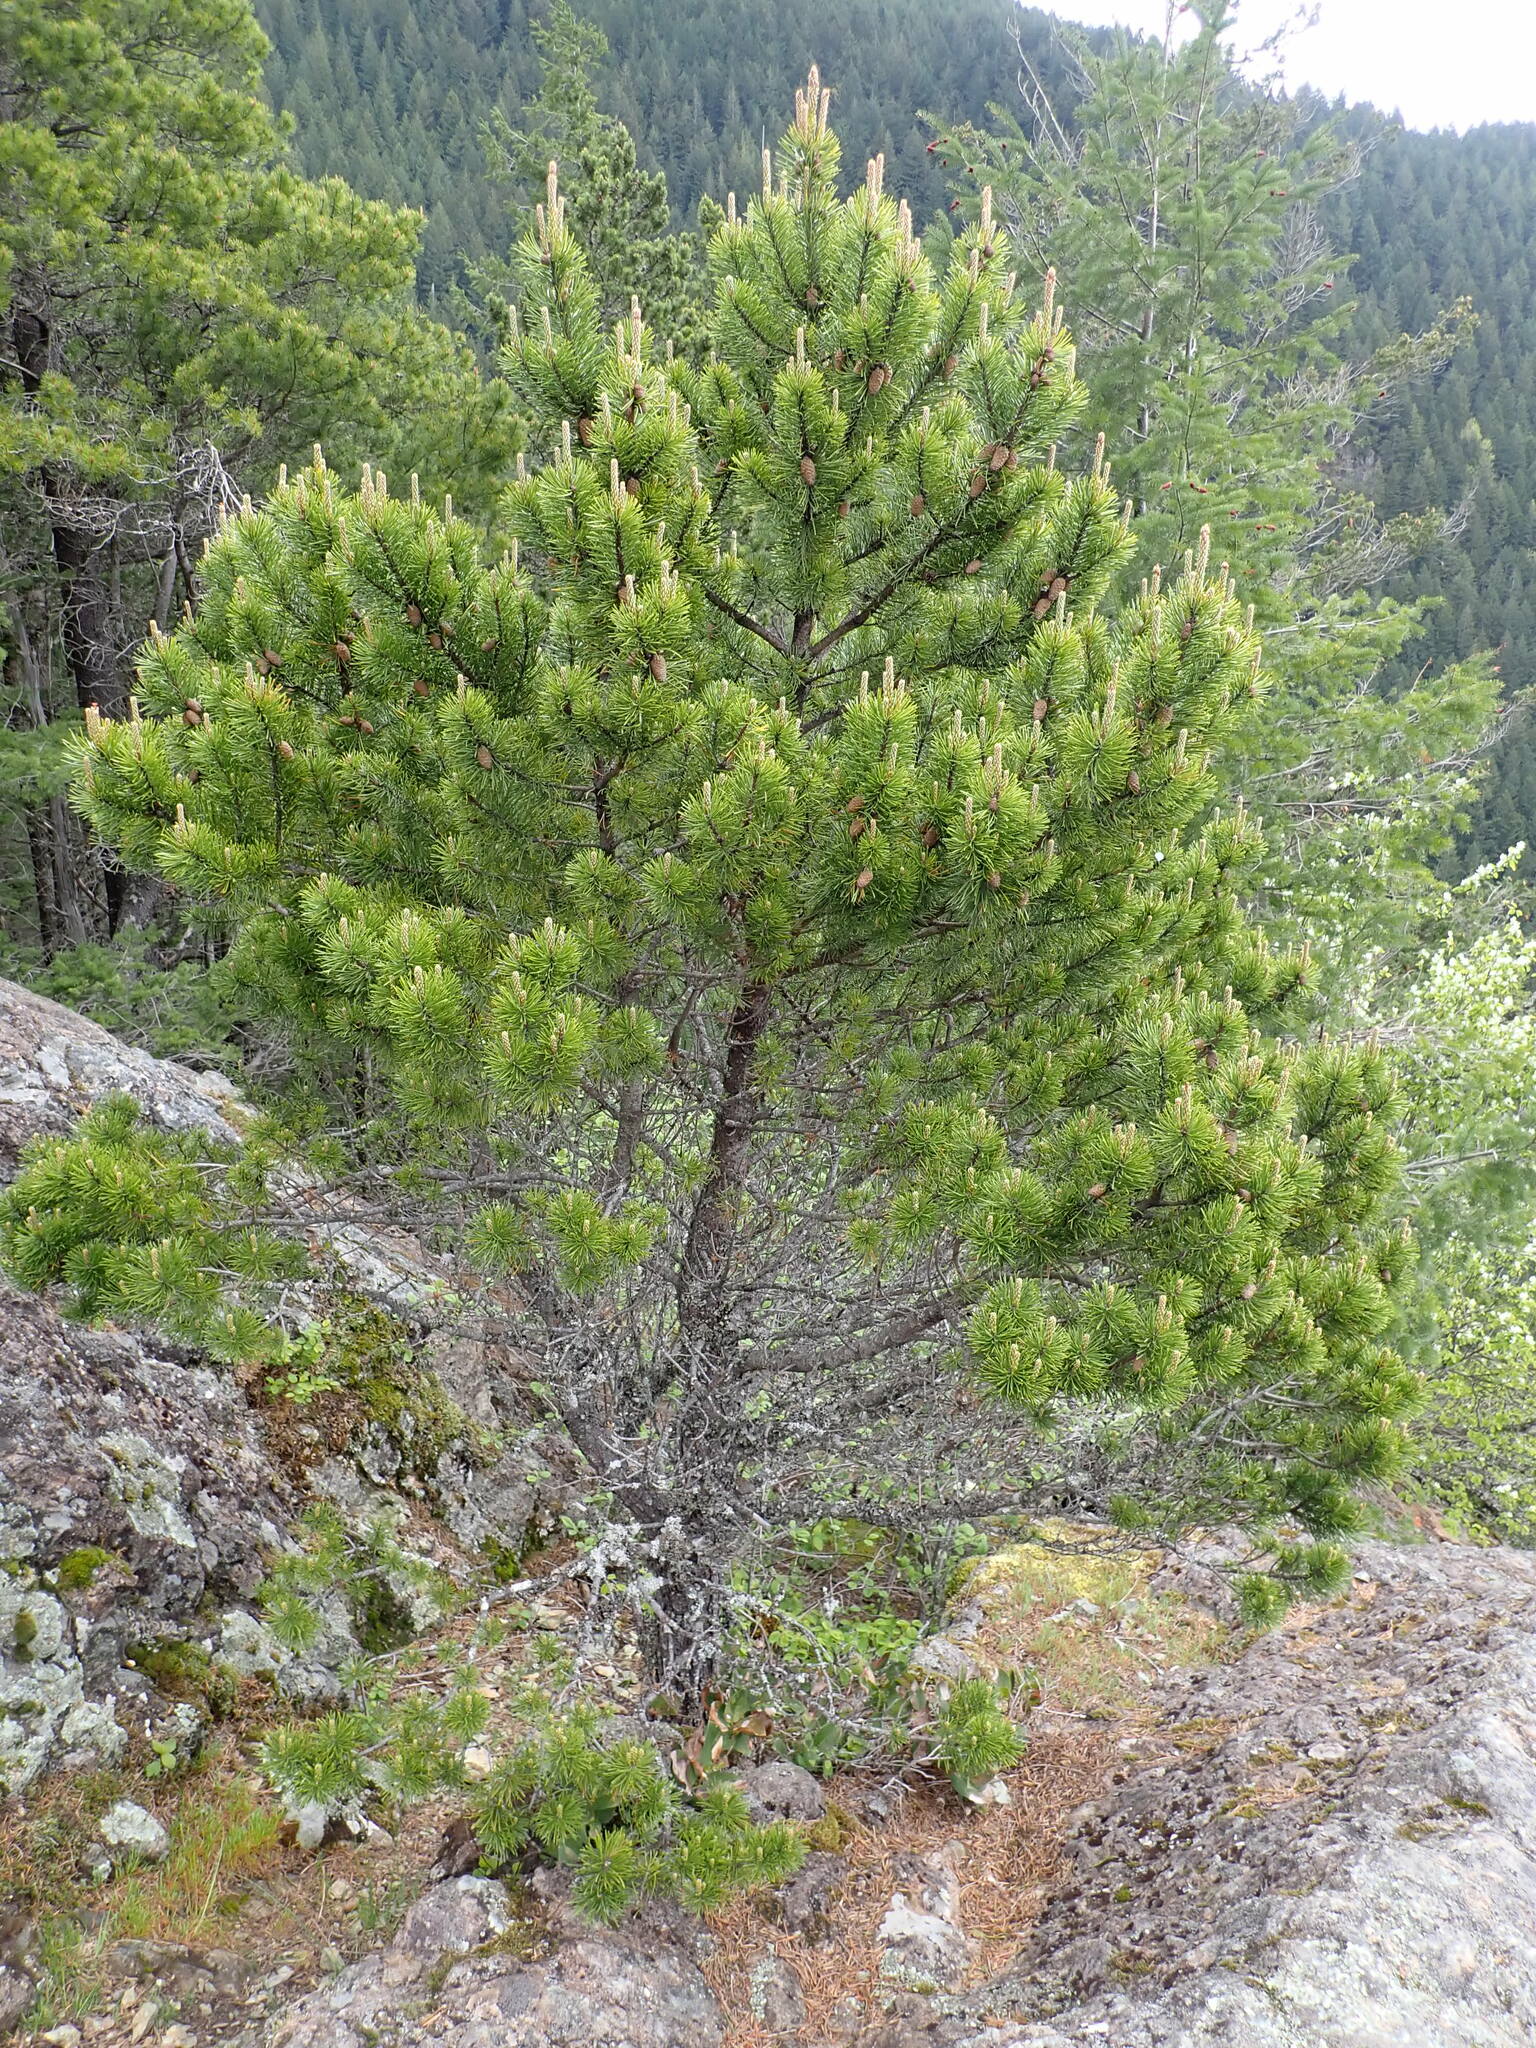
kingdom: Plantae
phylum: Tracheophyta
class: Pinopsida
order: Pinales
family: Pinaceae
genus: Pinus
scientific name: Pinus contorta
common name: Lodgepole pine
